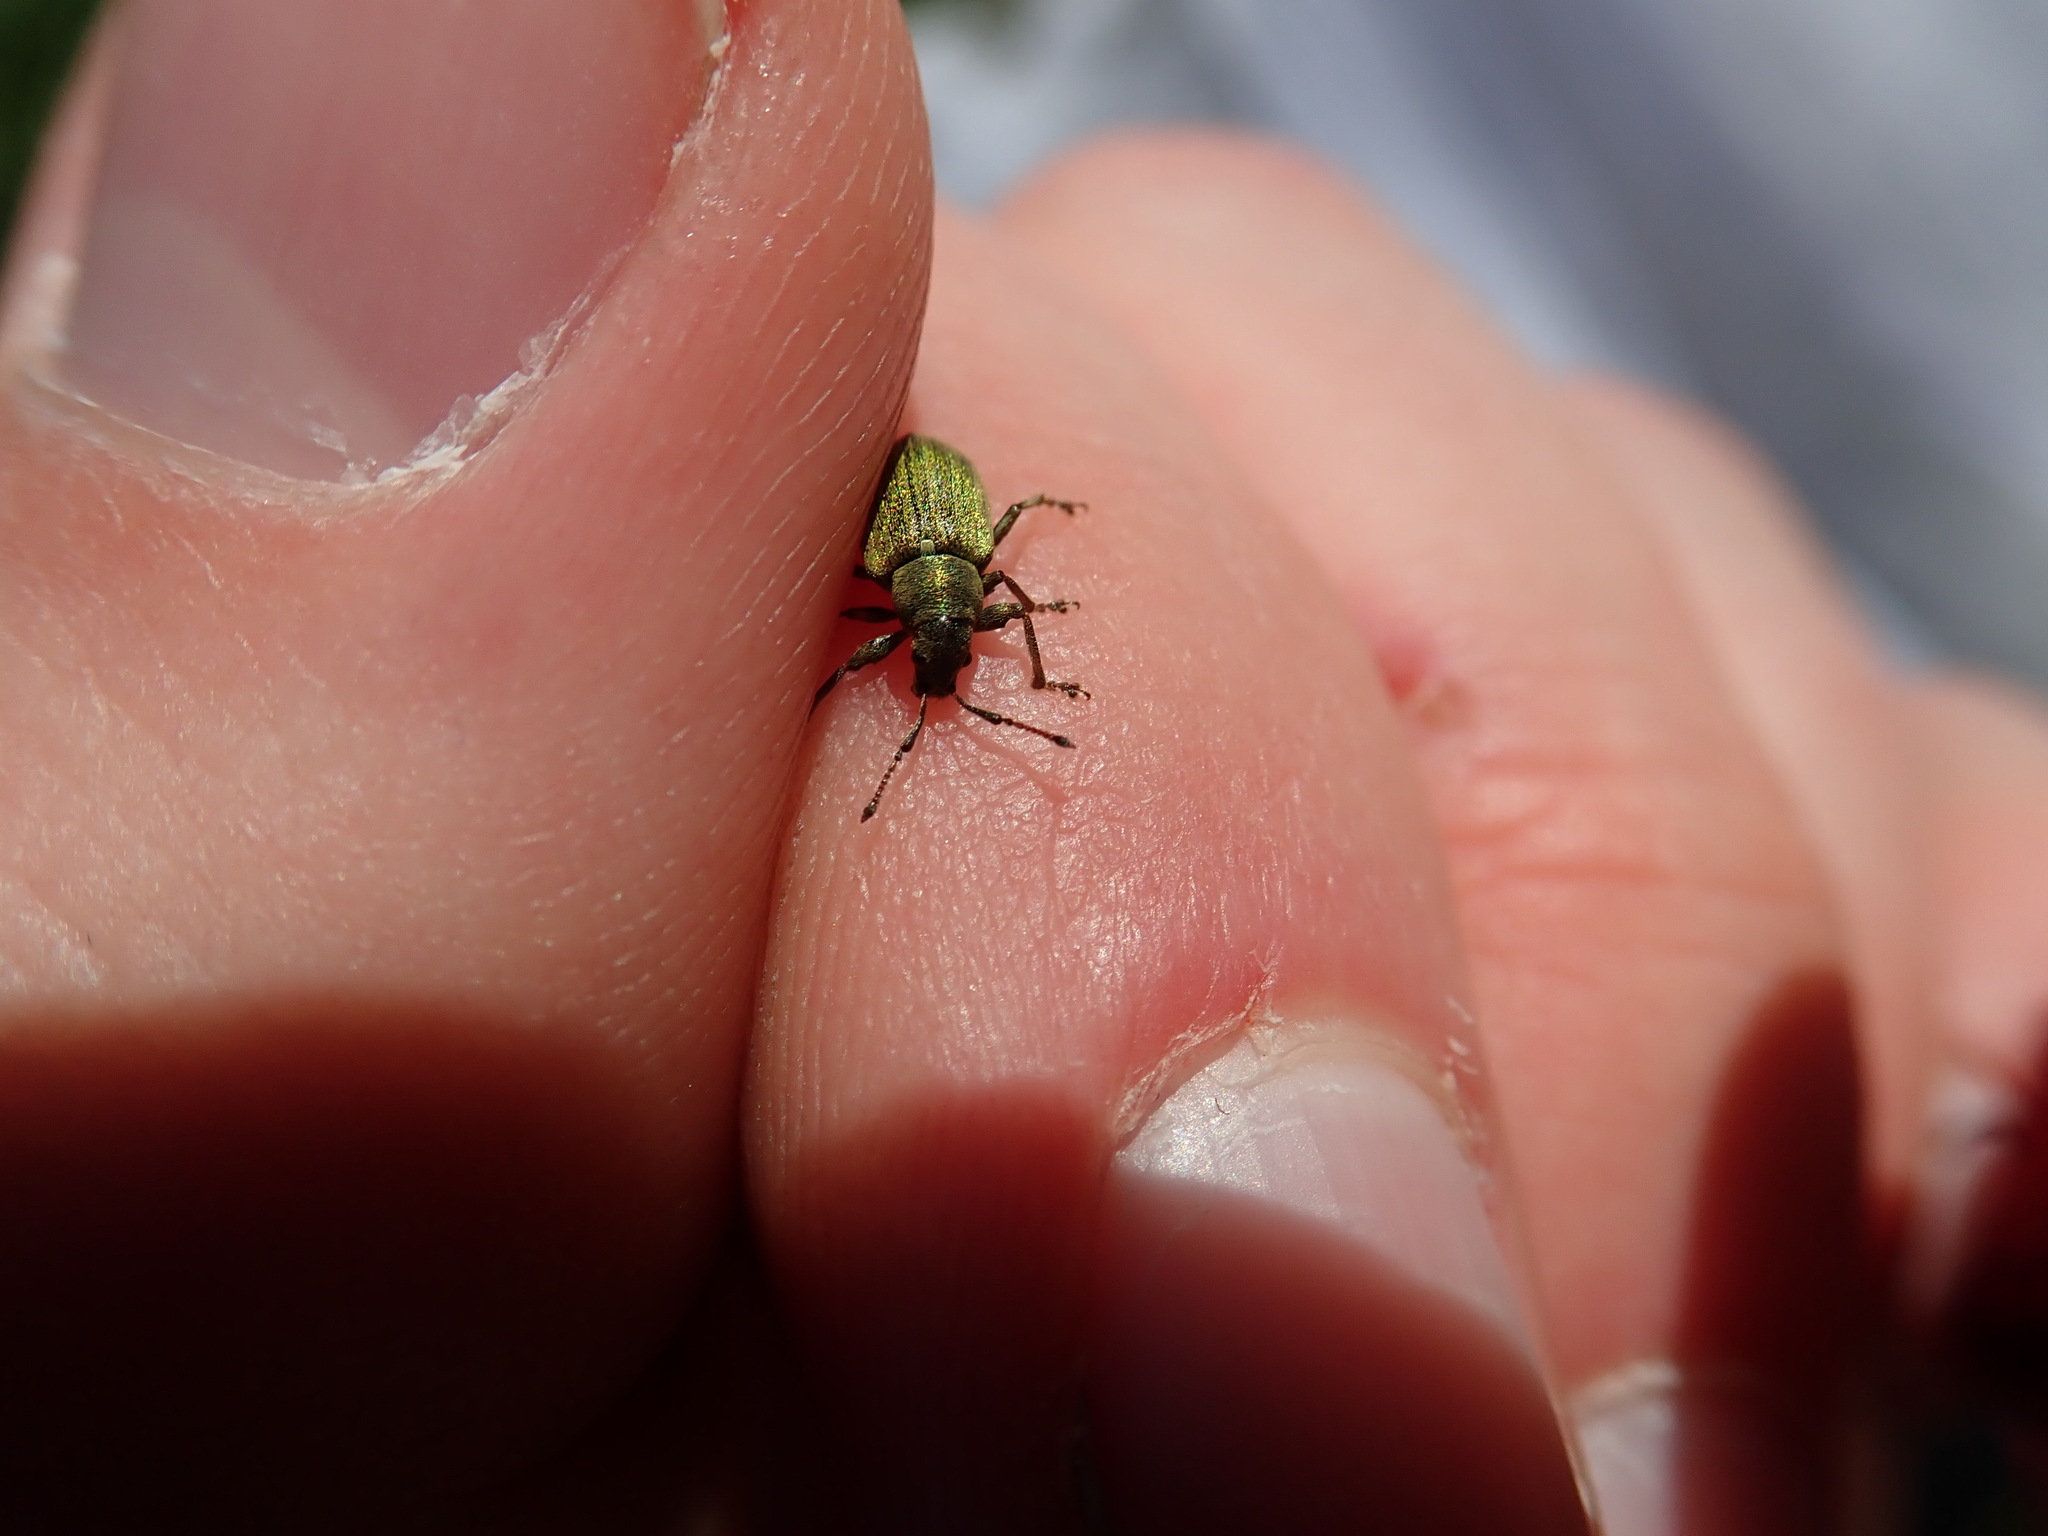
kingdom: Animalia
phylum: Arthropoda
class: Insecta
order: Coleoptera
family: Curculionidae
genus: Phyllobius
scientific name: Phyllobius pyri
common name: Common leaf weevil
